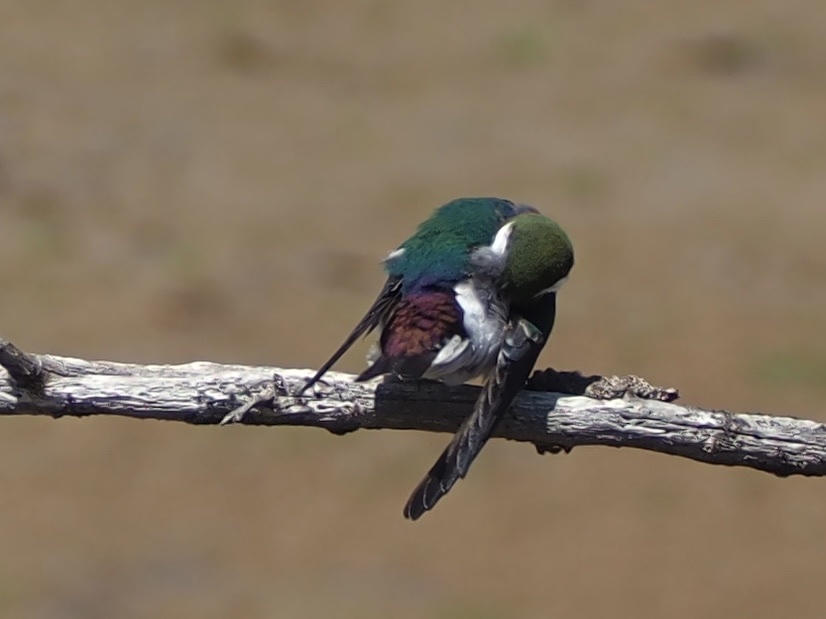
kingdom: Animalia
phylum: Chordata
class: Aves
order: Passeriformes
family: Hirundinidae
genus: Tachycineta
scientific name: Tachycineta thalassina
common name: Violet-green swallow
